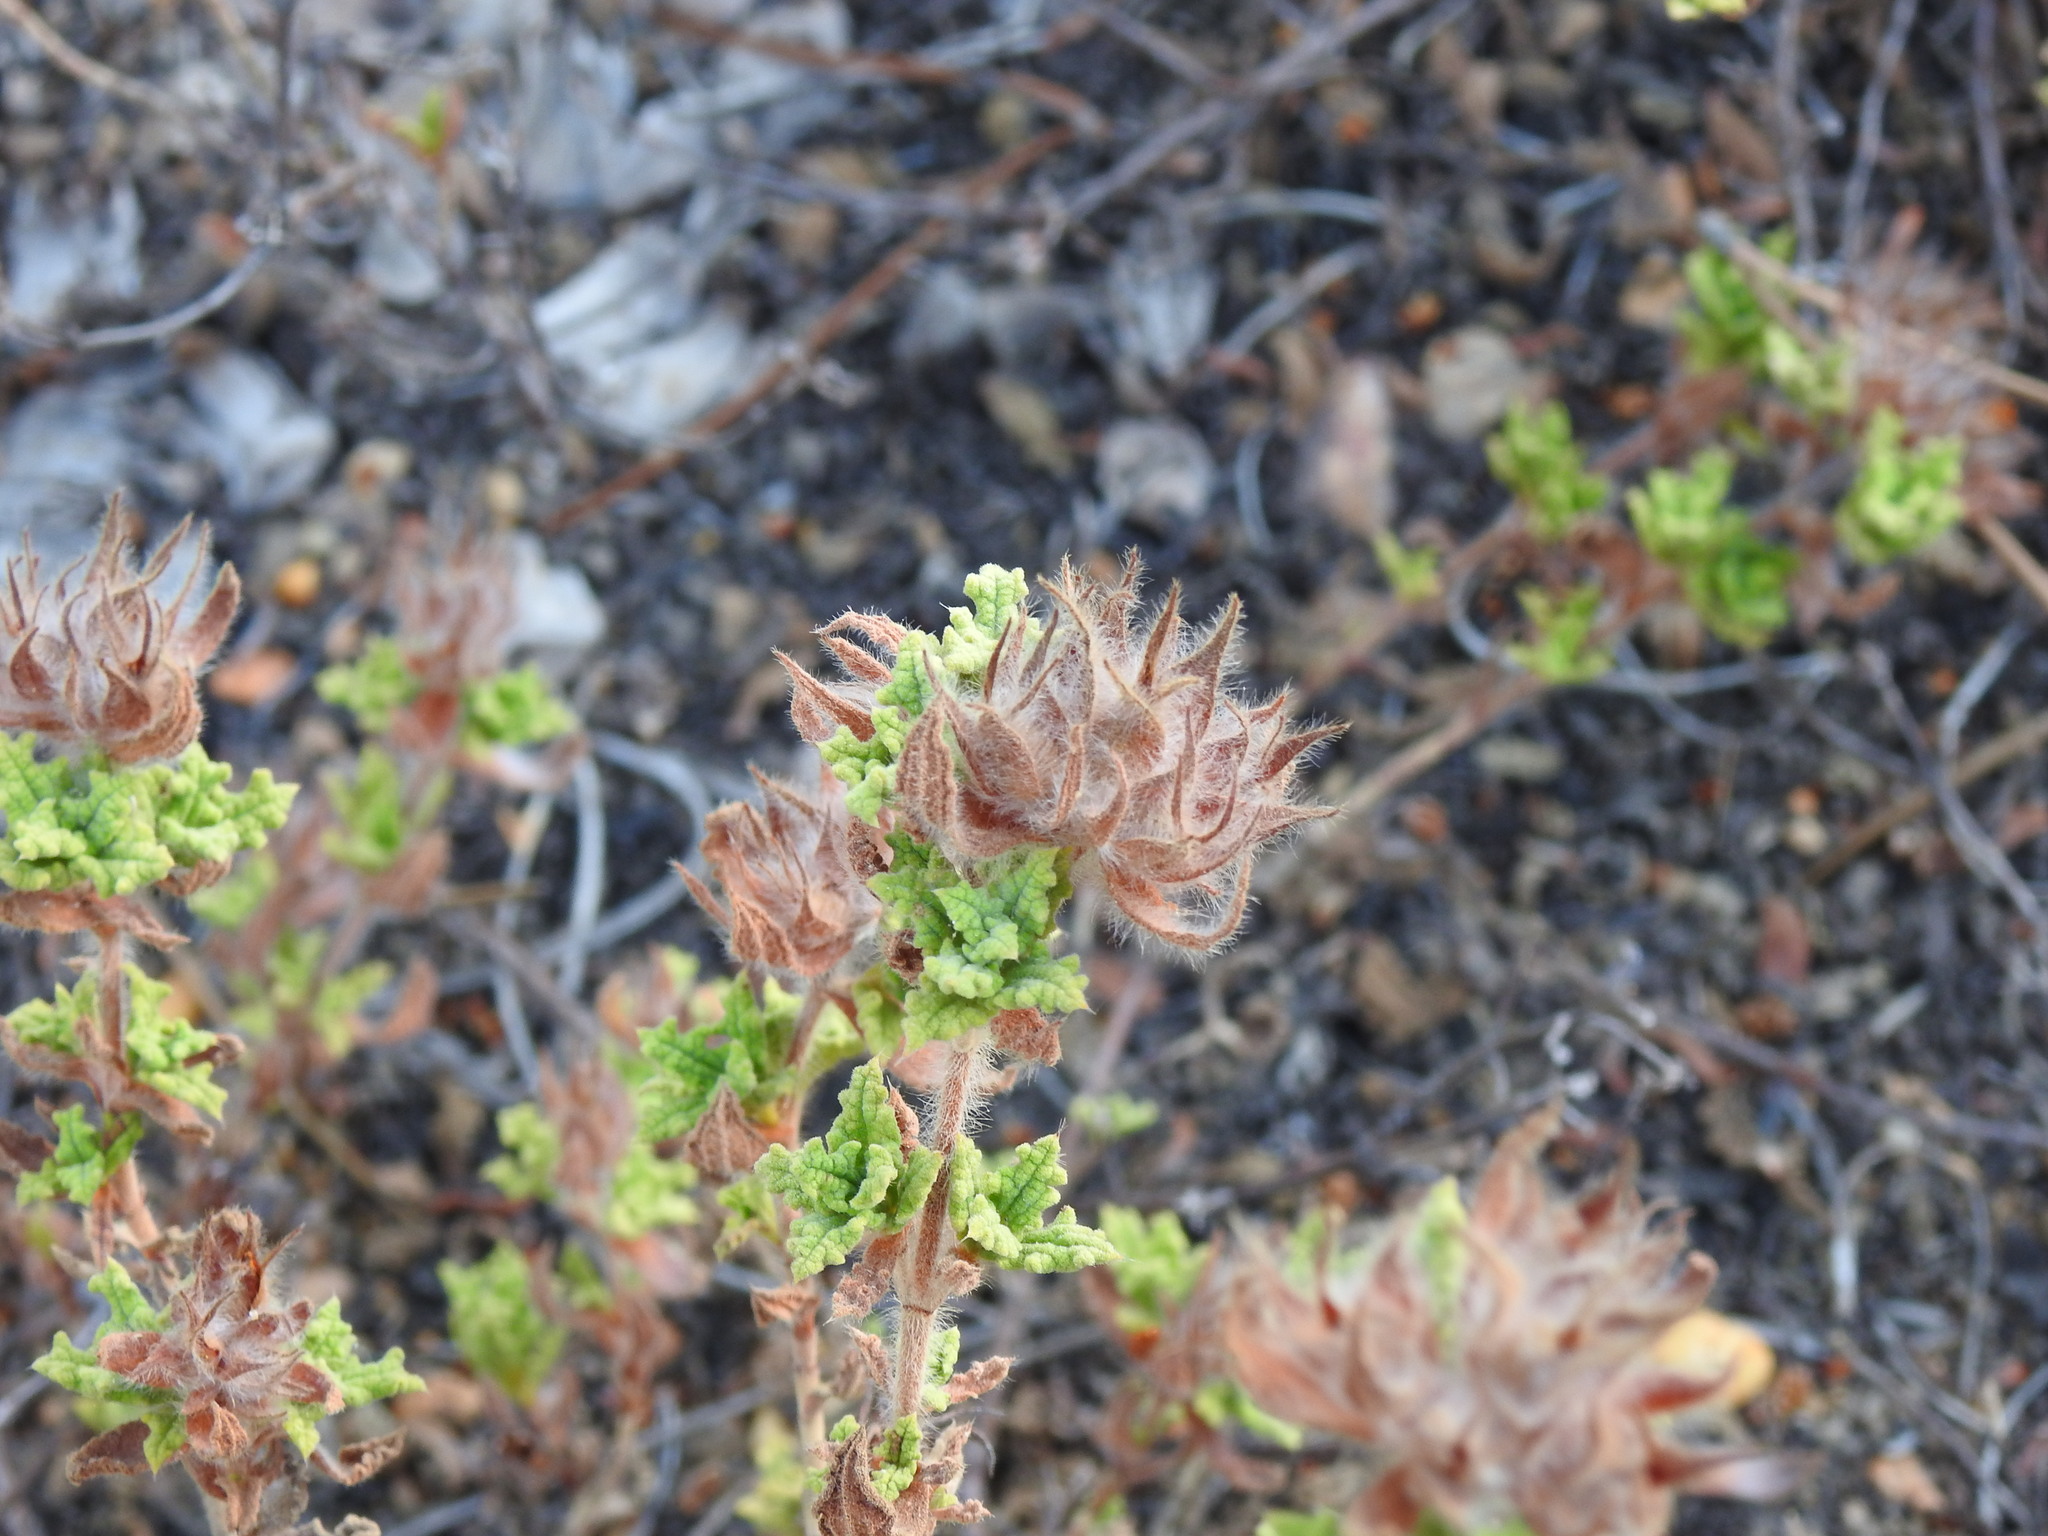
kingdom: Plantae
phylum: Tracheophyta
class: Magnoliopsida
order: Malvales
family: Cistaceae
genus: Cistus
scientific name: Cistus crispus
